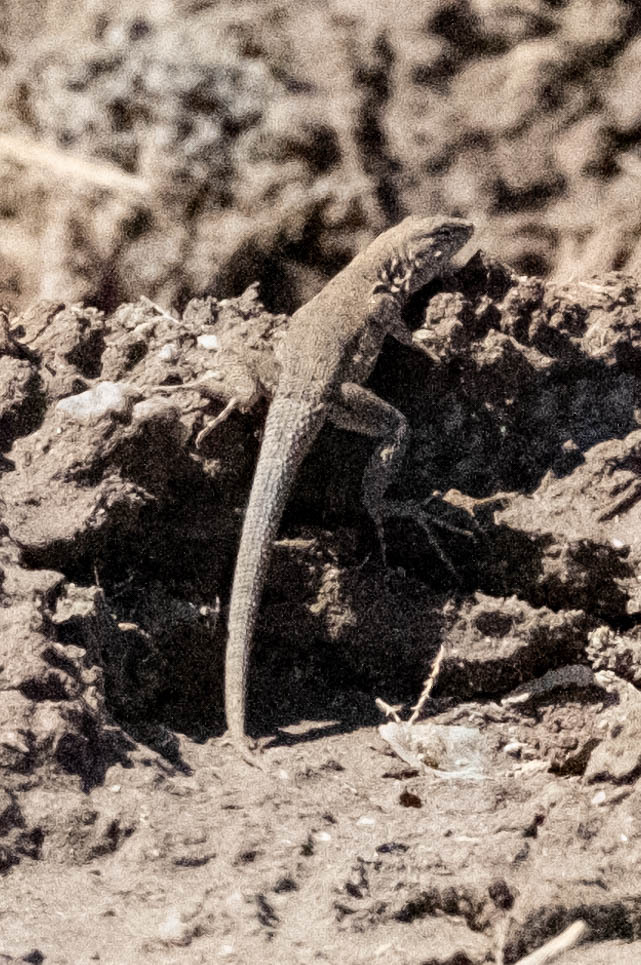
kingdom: Animalia
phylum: Chordata
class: Squamata
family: Phrynosomatidae
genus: Uta
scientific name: Uta stansburiana
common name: Side-blotched lizard
